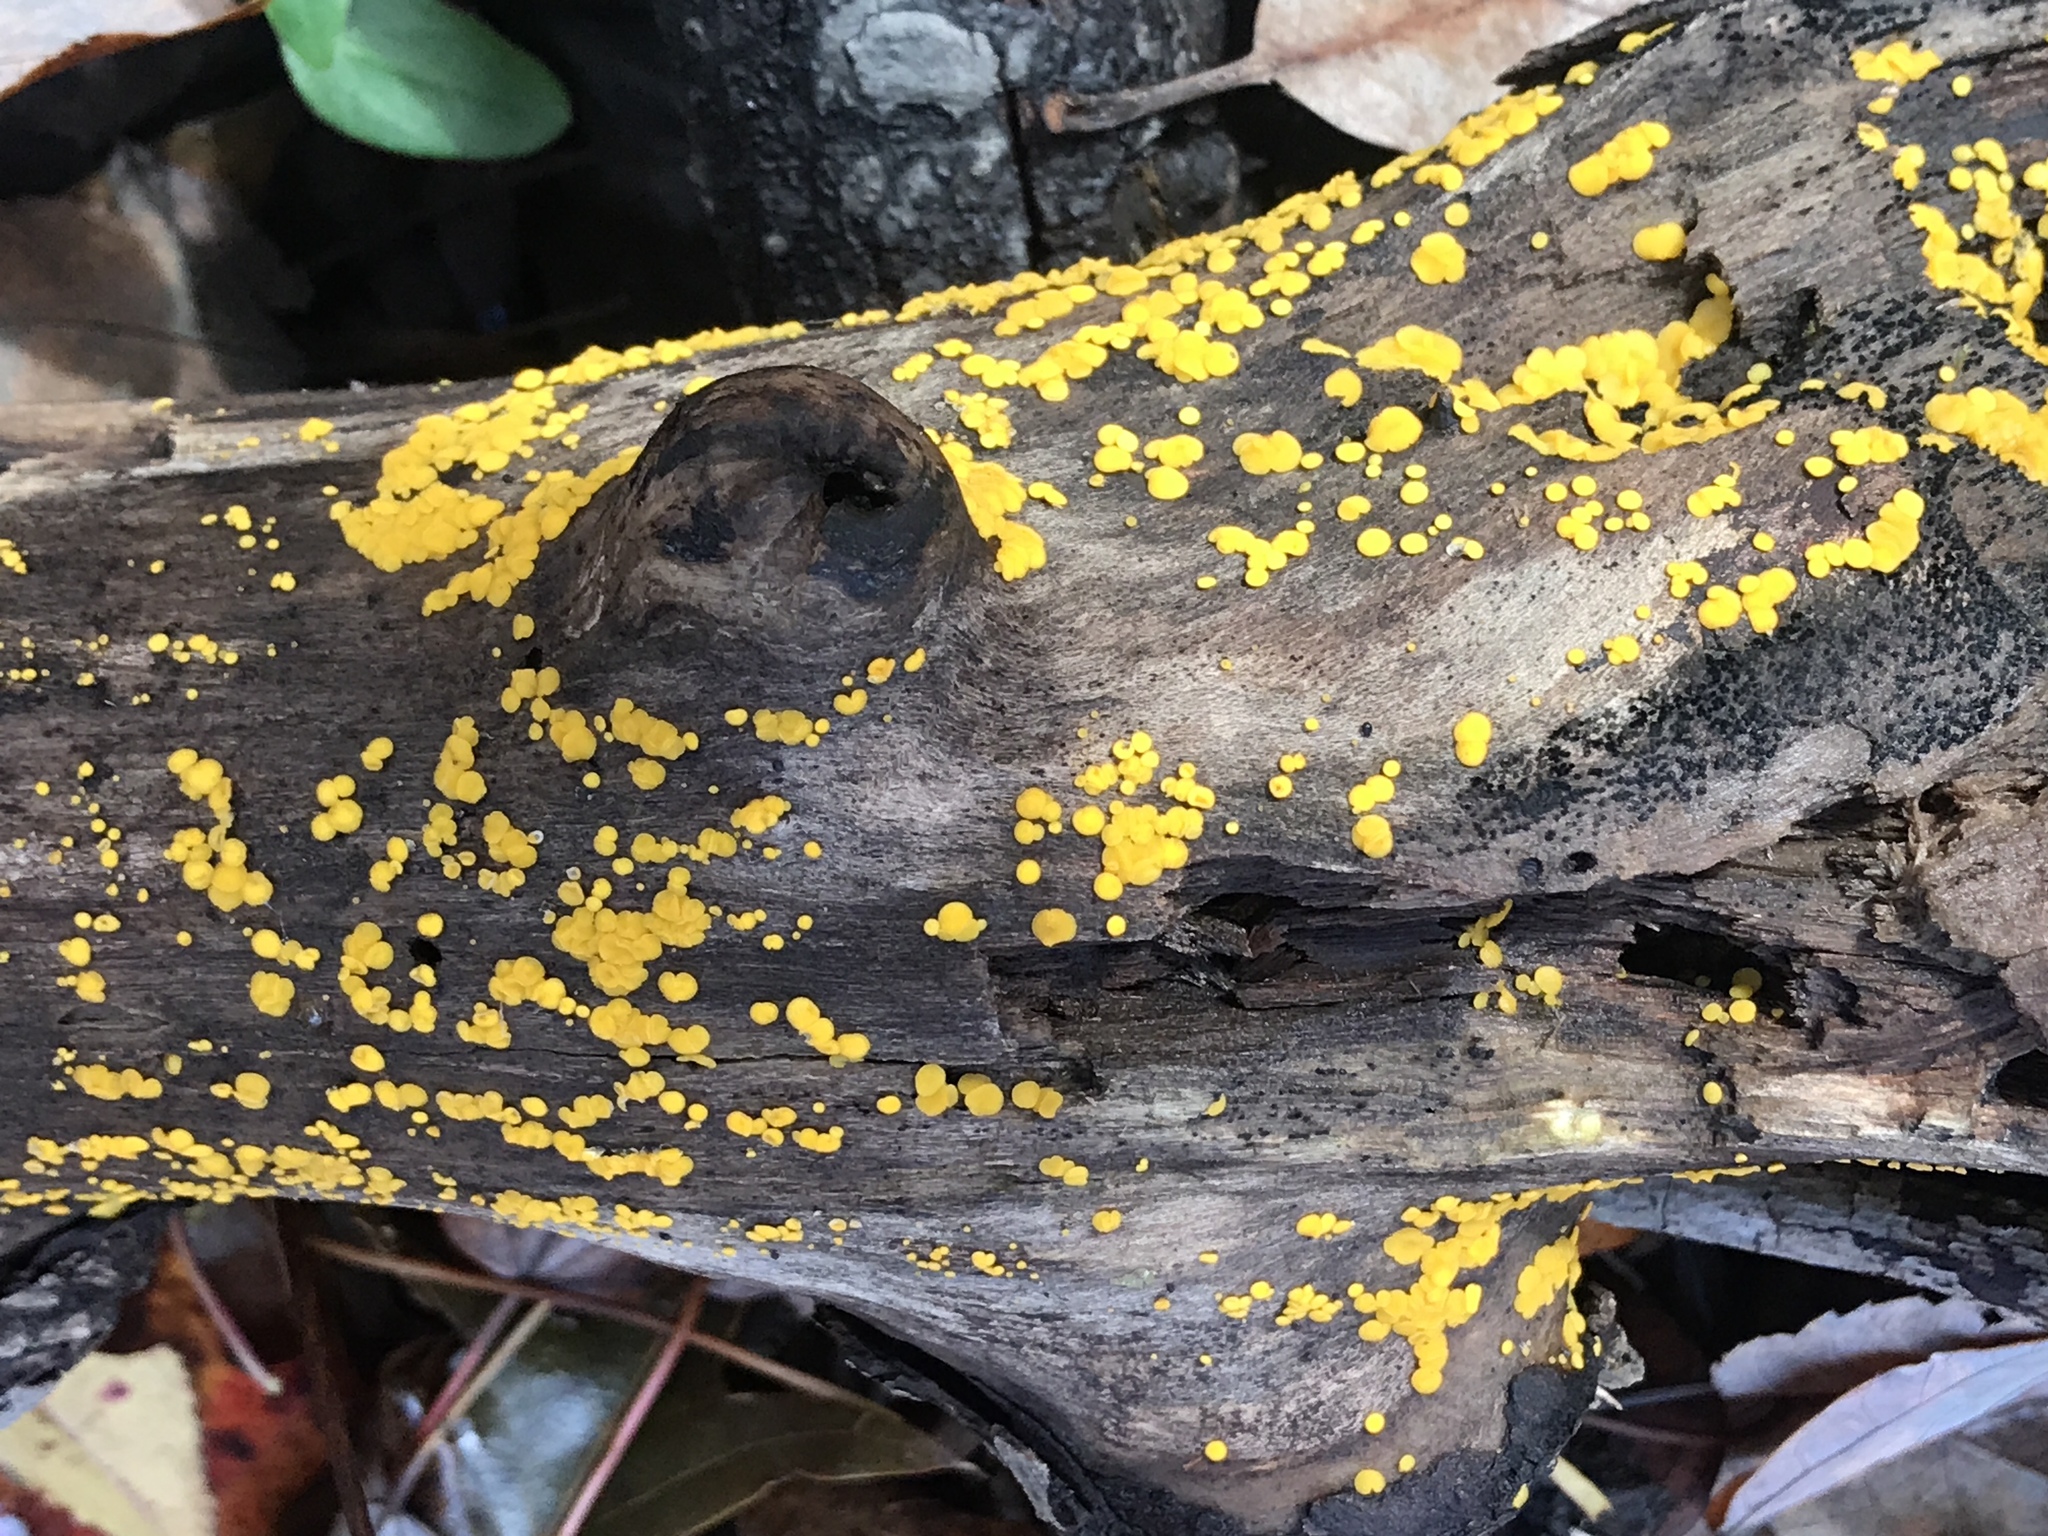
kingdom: Fungi
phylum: Ascomycota
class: Leotiomycetes
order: Helotiales
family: Pezizellaceae
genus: Calycina
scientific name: Calycina citrina
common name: Yellow fairy cups
